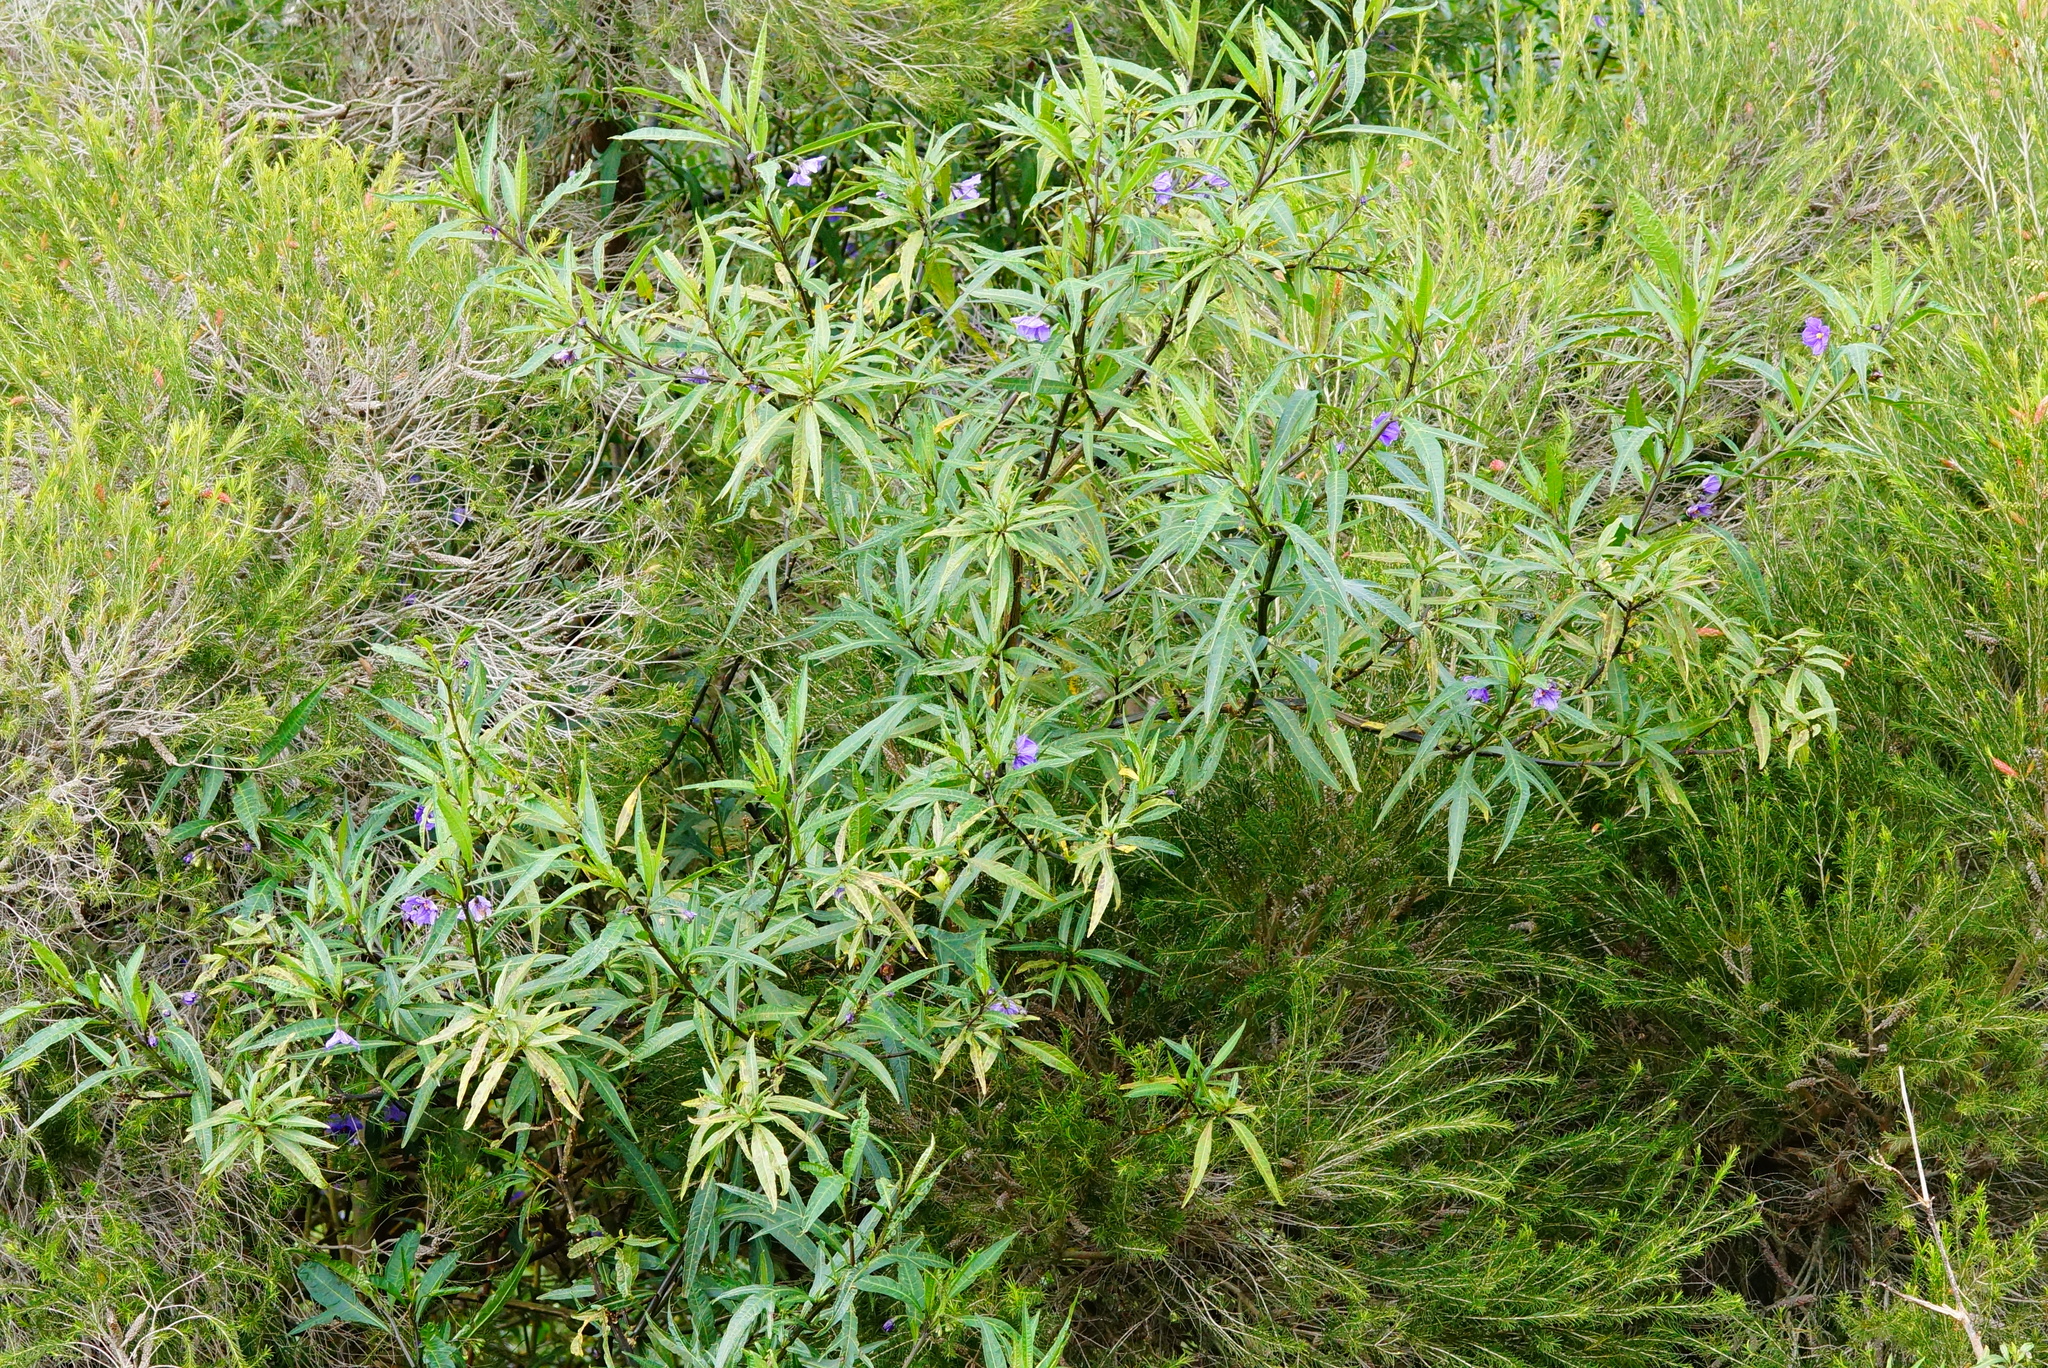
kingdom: Plantae
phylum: Tracheophyta
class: Magnoliopsida
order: Solanales
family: Solanaceae
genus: Solanum
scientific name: Solanum laciniatum
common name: Kangaroo-apple
